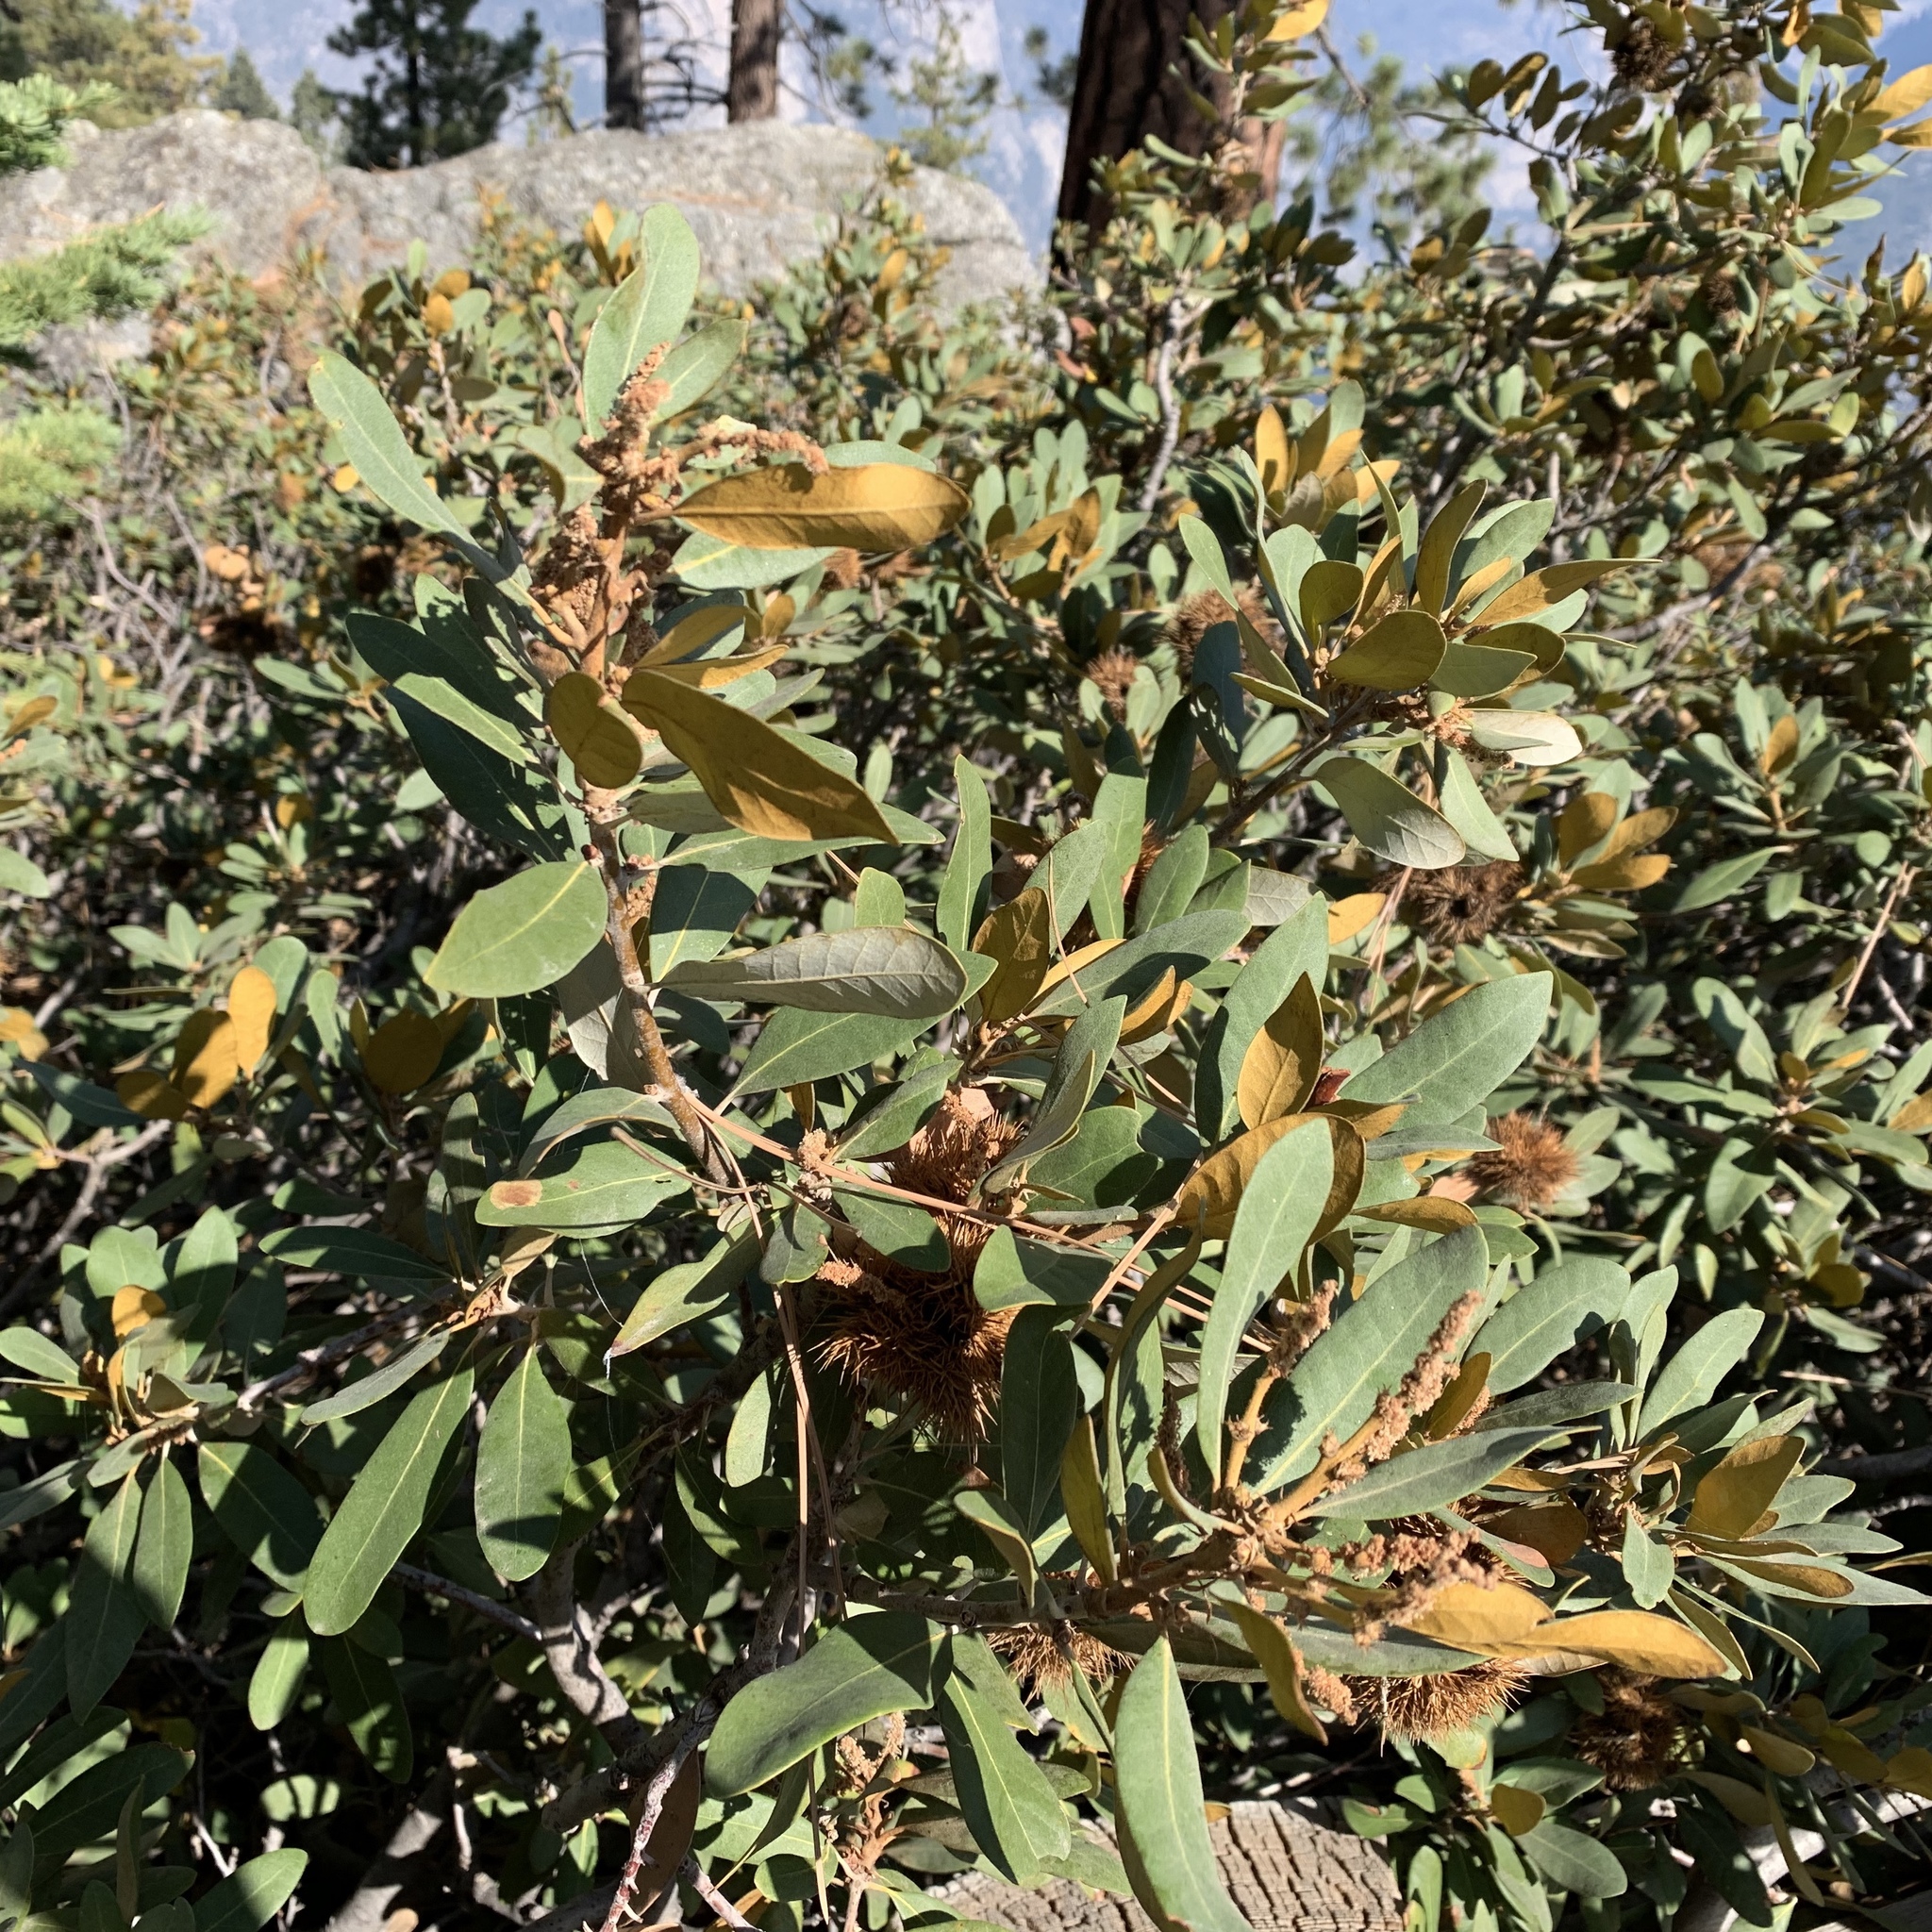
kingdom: Plantae
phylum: Tracheophyta
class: Magnoliopsida
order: Fagales
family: Fagaceae
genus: Chrysolepis
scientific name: Chrysolepis sempervirens
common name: Bush chinquapin
